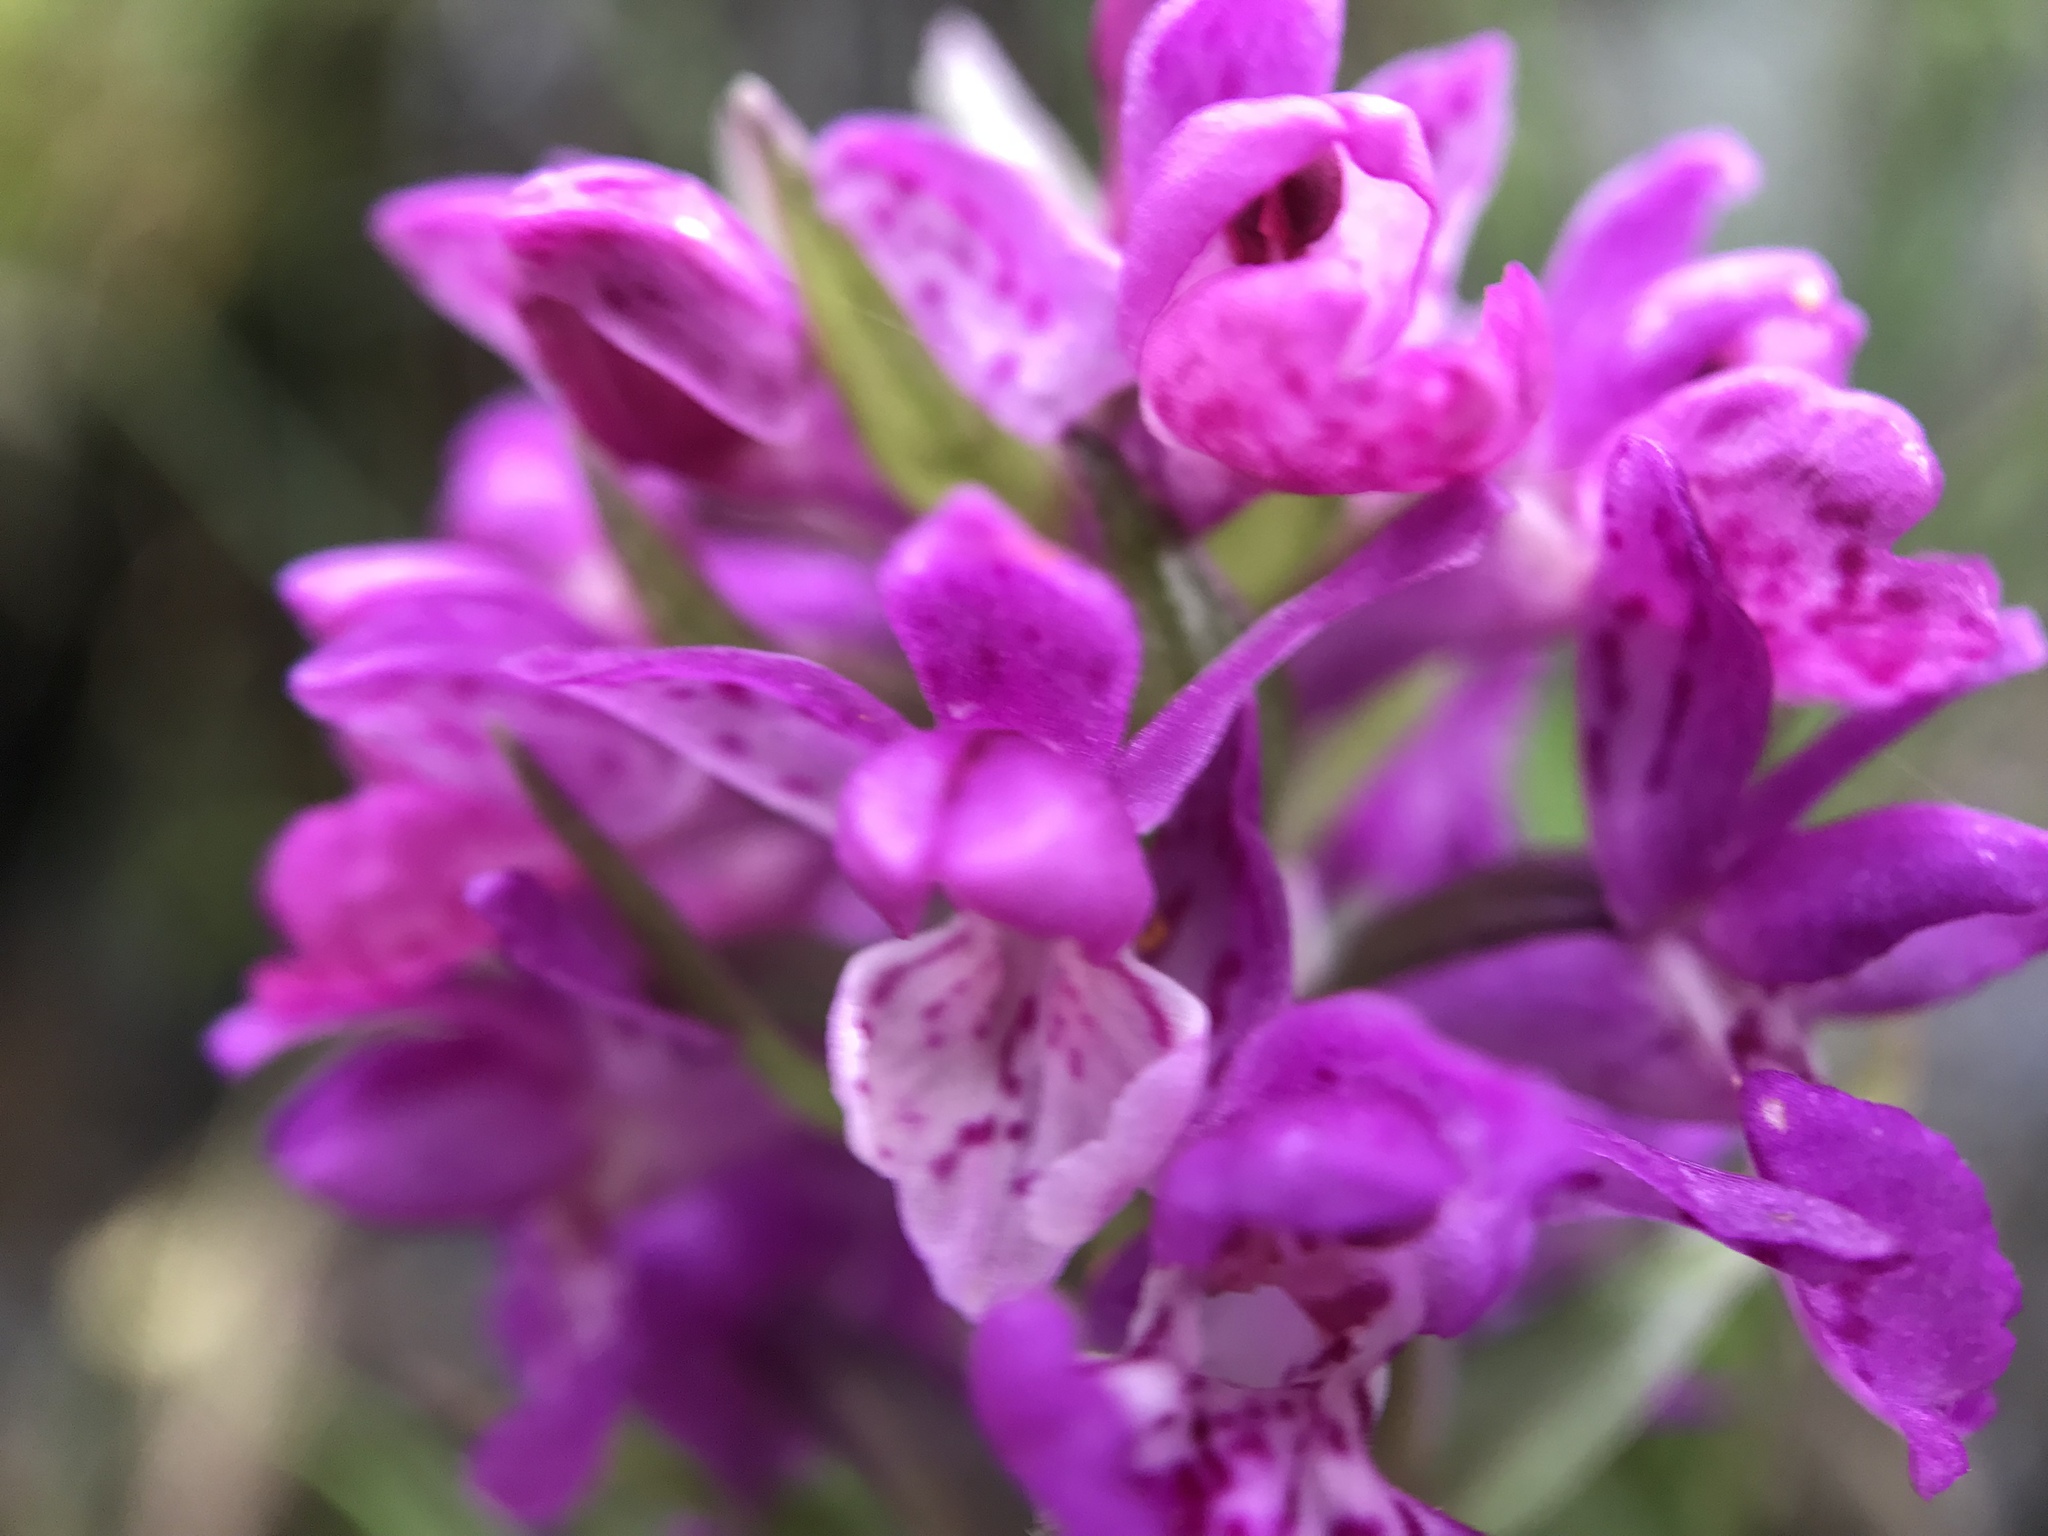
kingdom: Plantae
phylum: Tracheophyta
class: Liliopsida
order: Asparagales
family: Orchidaceae
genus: Dactylorhiza
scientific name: Dactylorhiza majalis
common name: Marsh orchid
